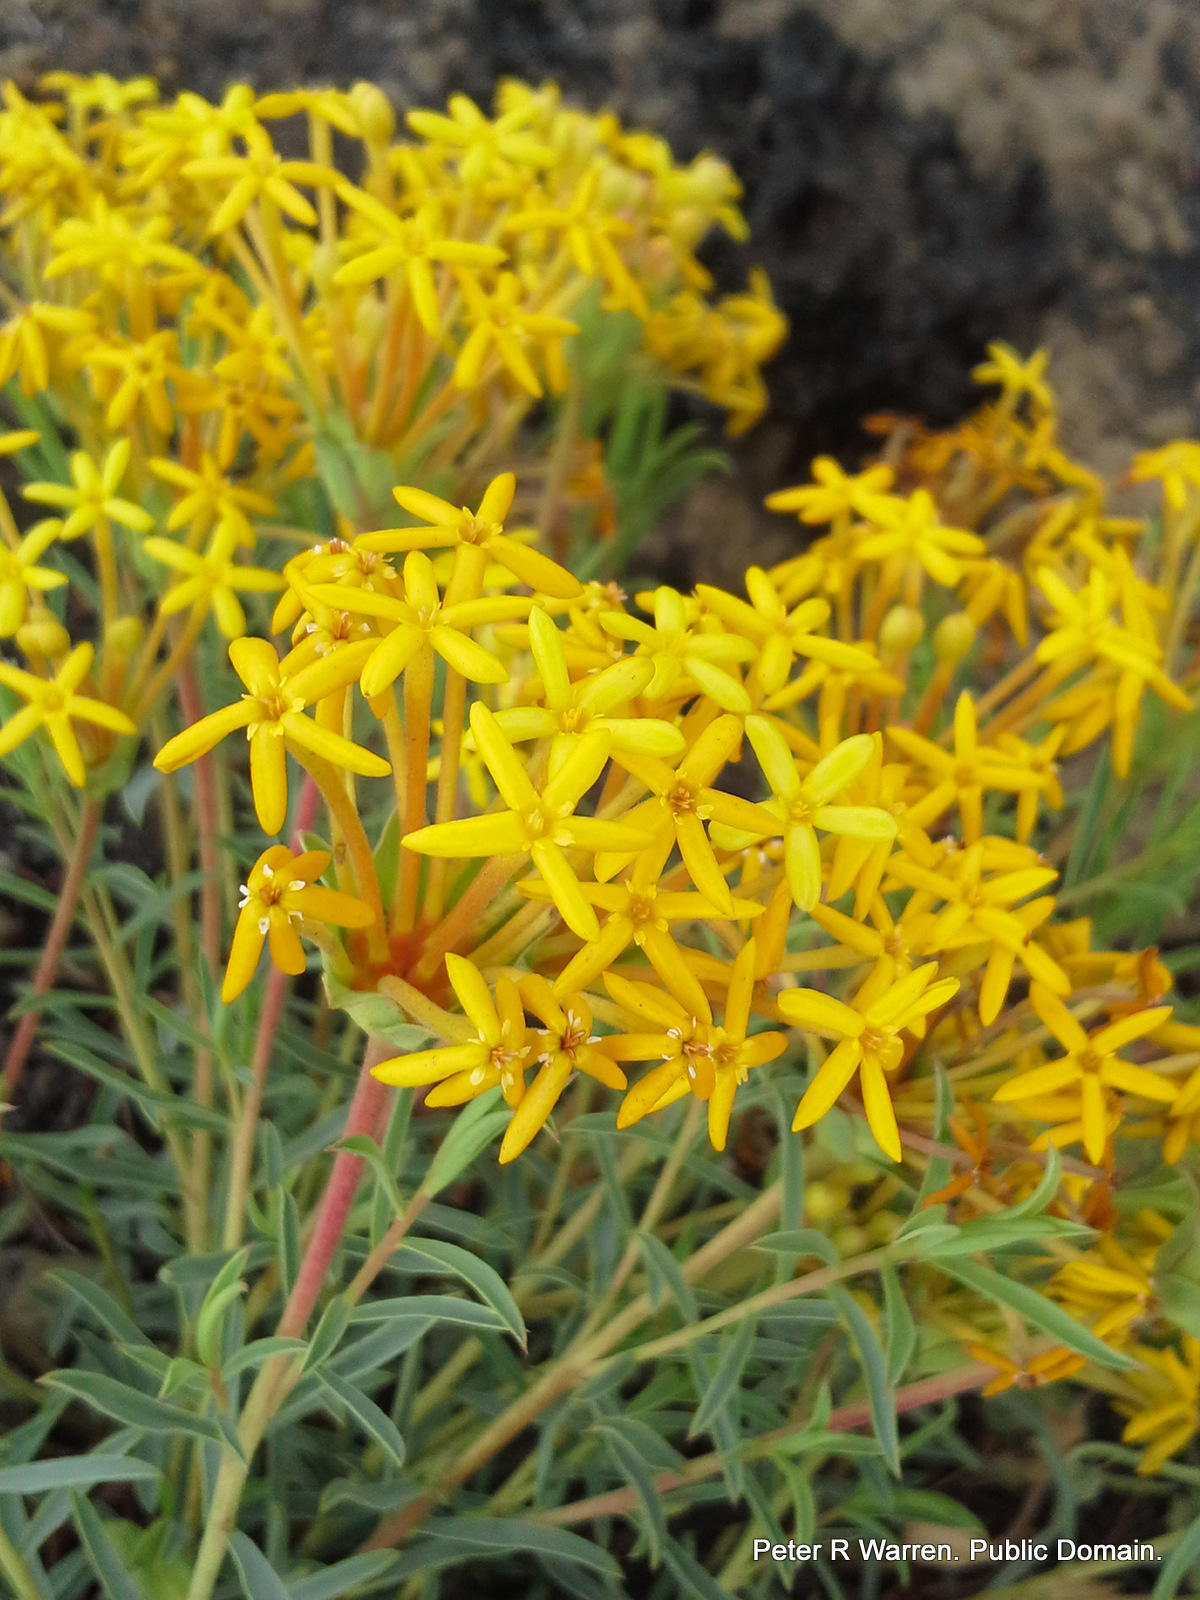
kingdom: Plantae
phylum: Tracheophyta
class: Magnoliopsida
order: Malvales
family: Thymelaeaceae
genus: Gnidia
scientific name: Gnidia capitata
